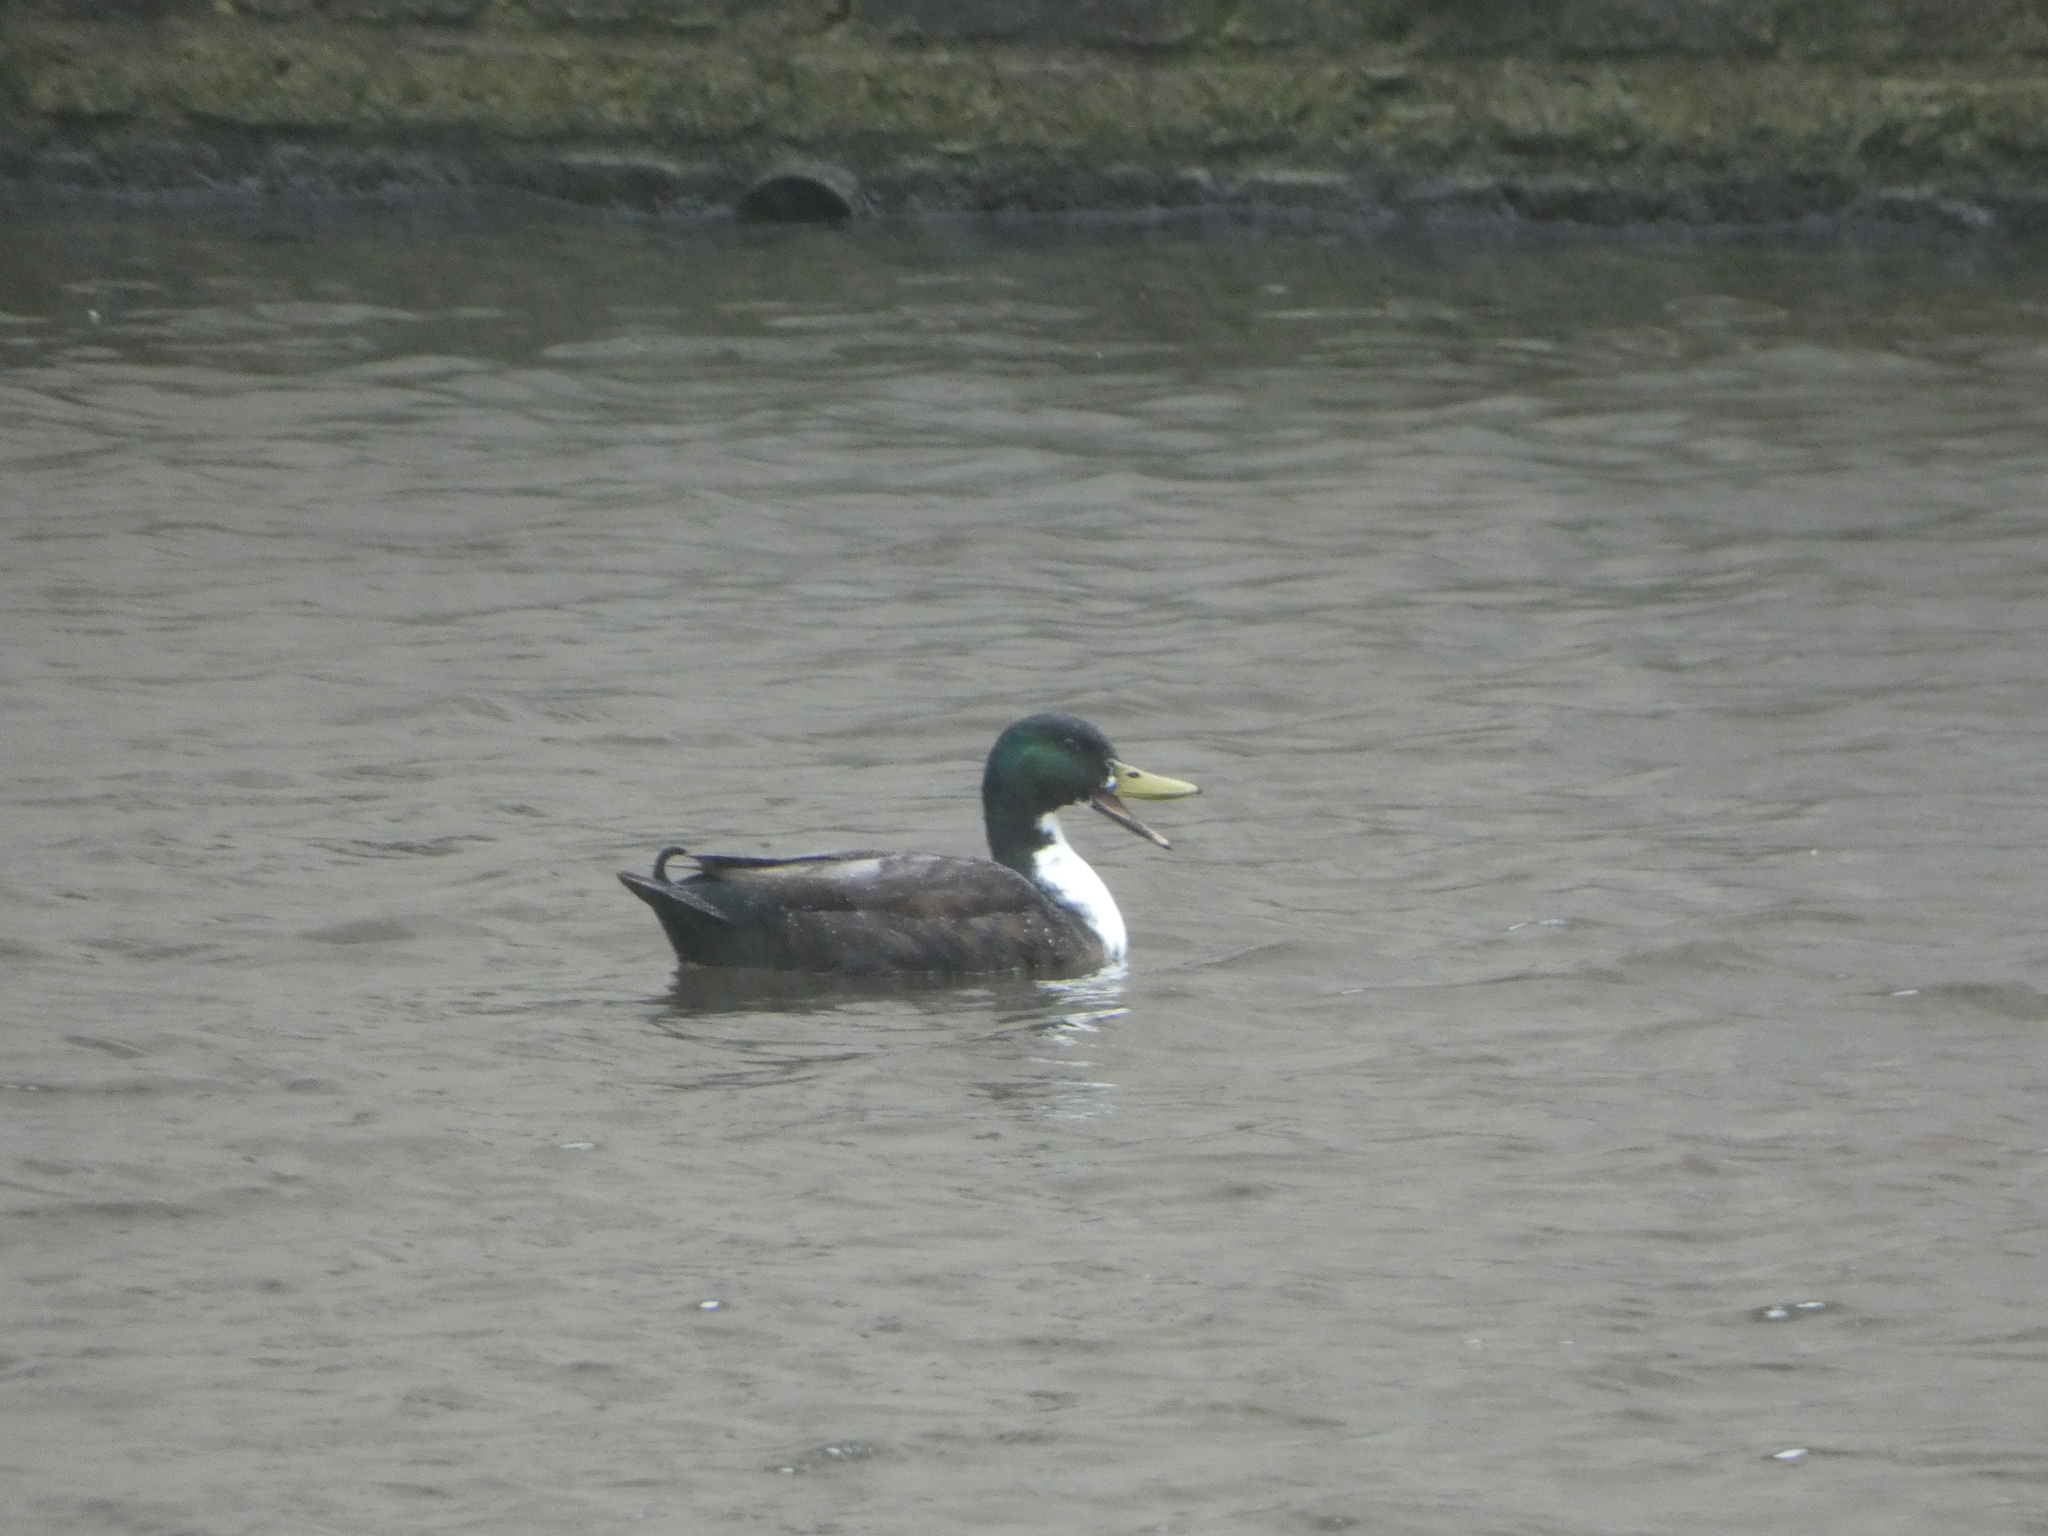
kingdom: Animalia
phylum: Chordata
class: Aves
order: Anseriformes
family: Anatidae
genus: Anas
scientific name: Anas platyrhynchos
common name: Mallard
